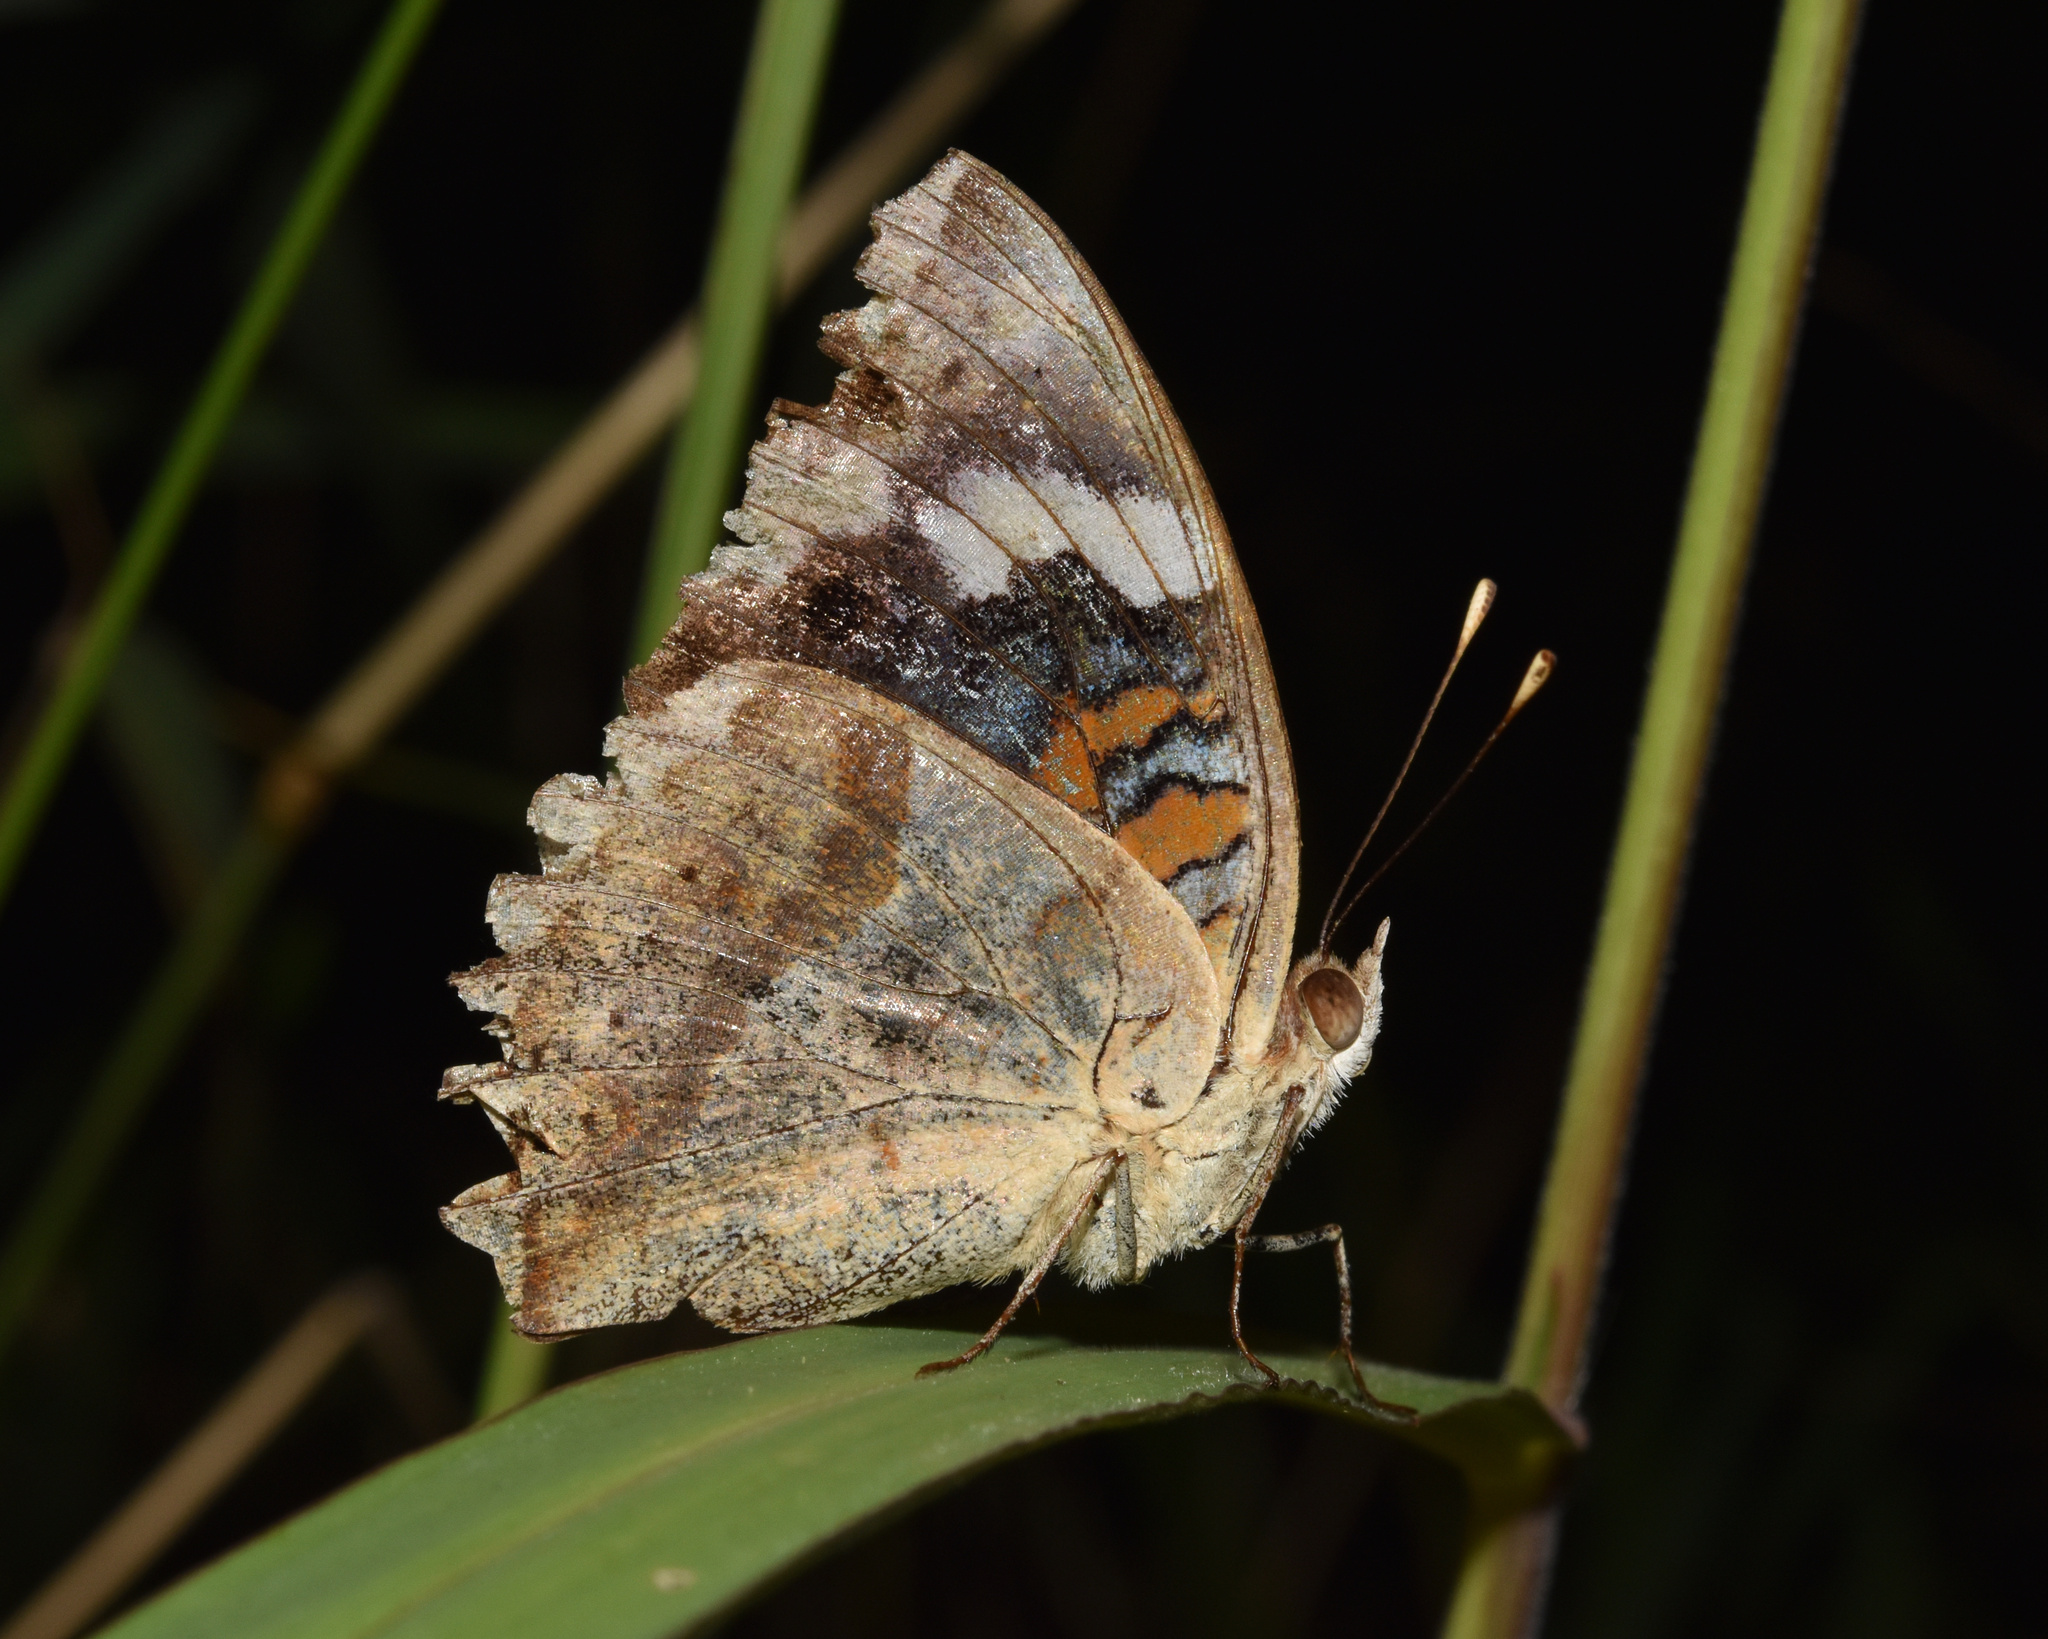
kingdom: Animalia
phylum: Arthropoda
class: Insecta
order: Lepidoptera
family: Nymphalidae
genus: Junonia
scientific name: Junonia oenone
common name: Dark blue pansy
